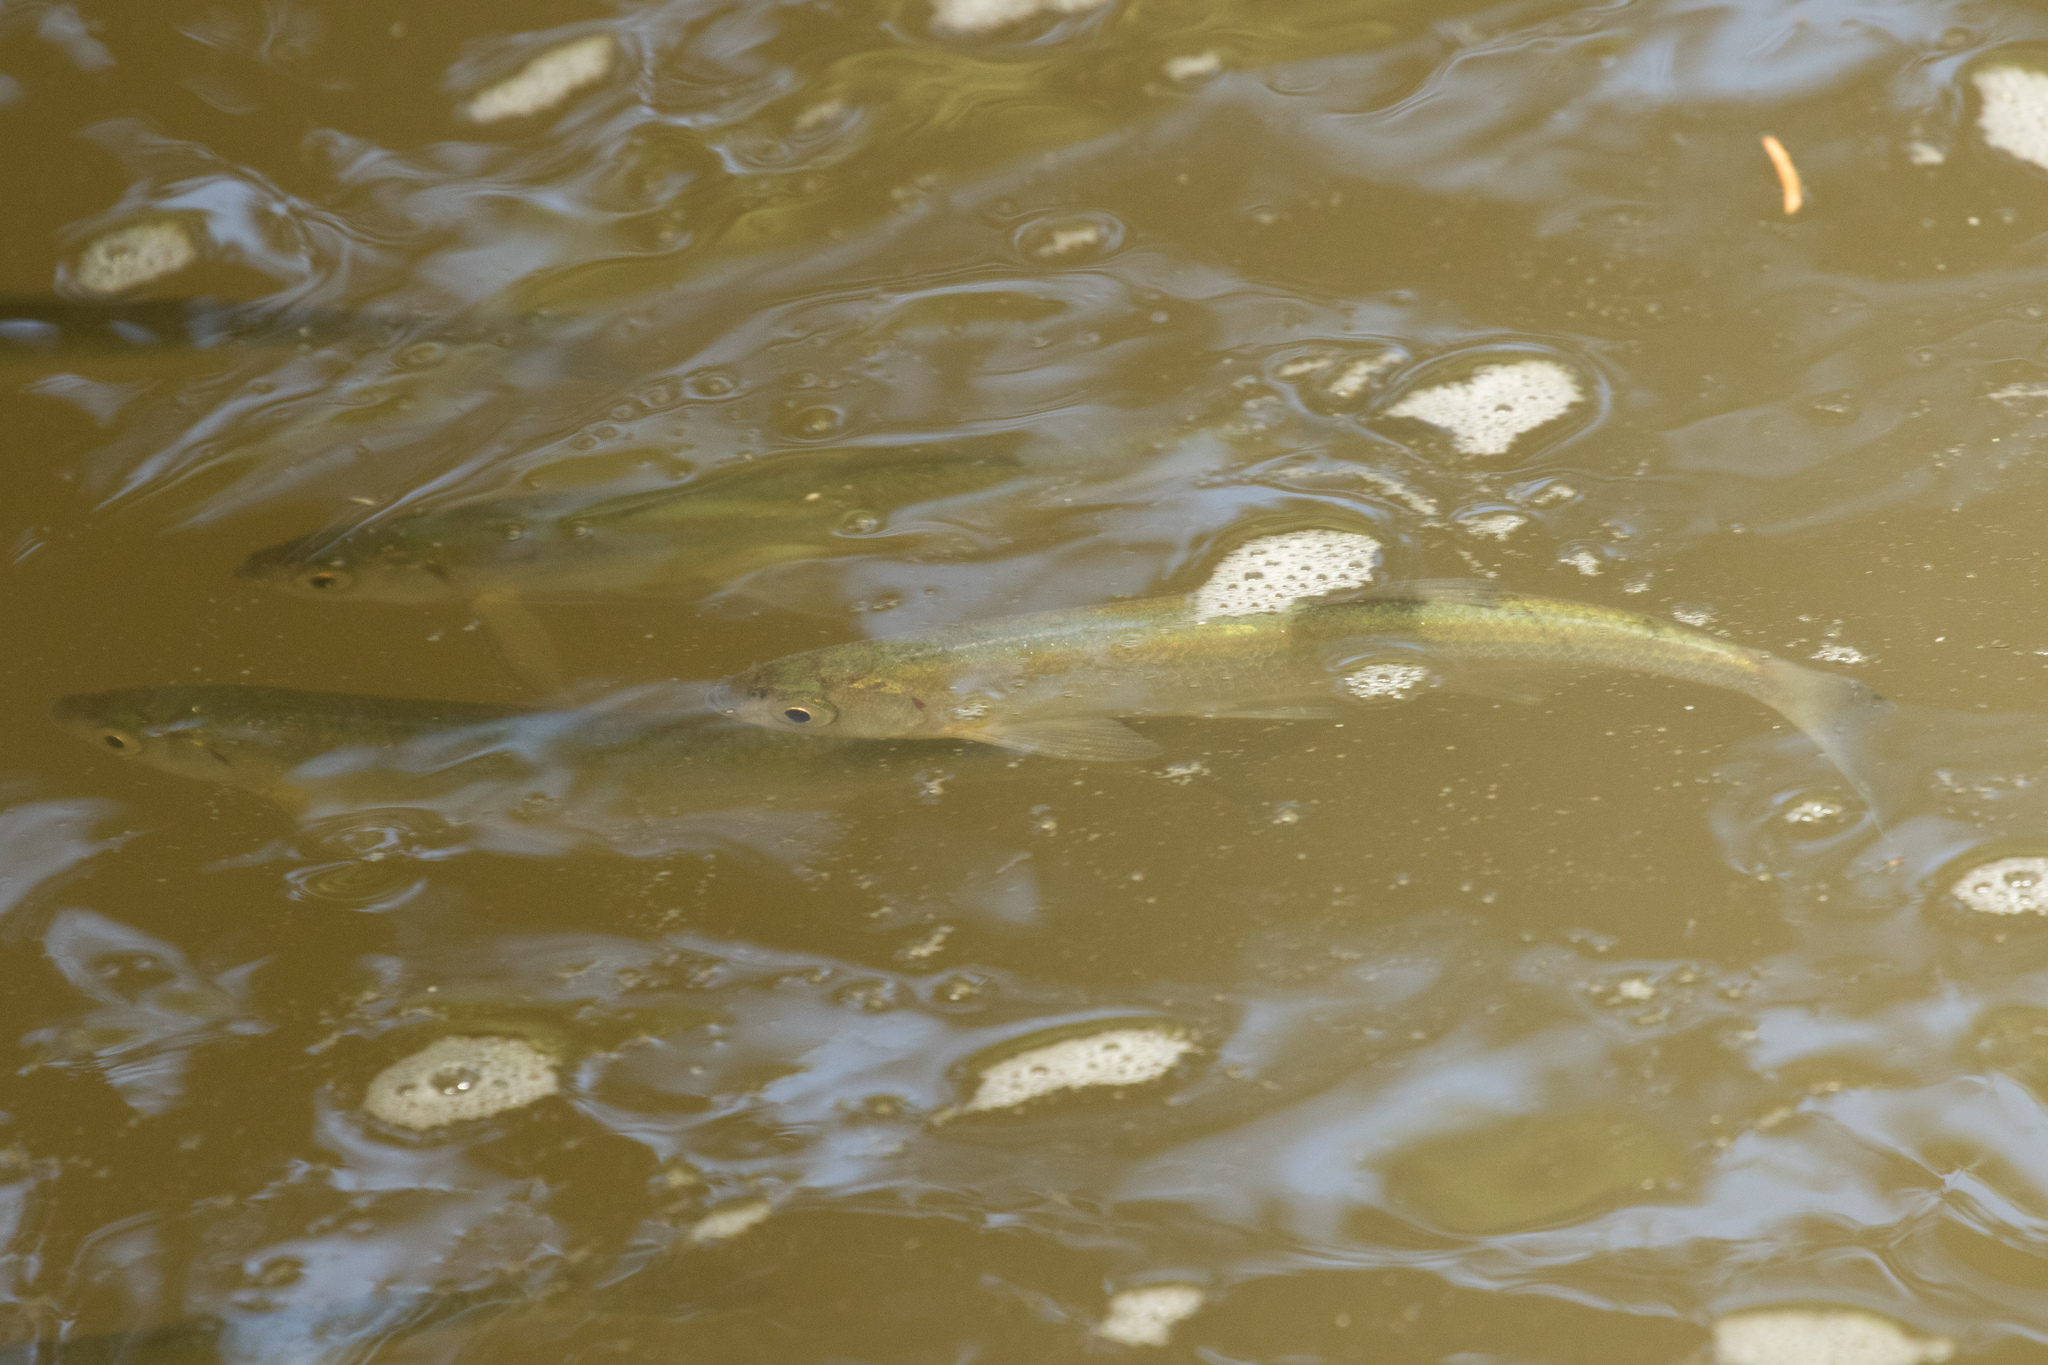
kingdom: Animalia
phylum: Chordata
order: Cypriniformes
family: Cyprinidae
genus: Alburnus
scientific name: Alburnus alburnus
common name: Bleak
